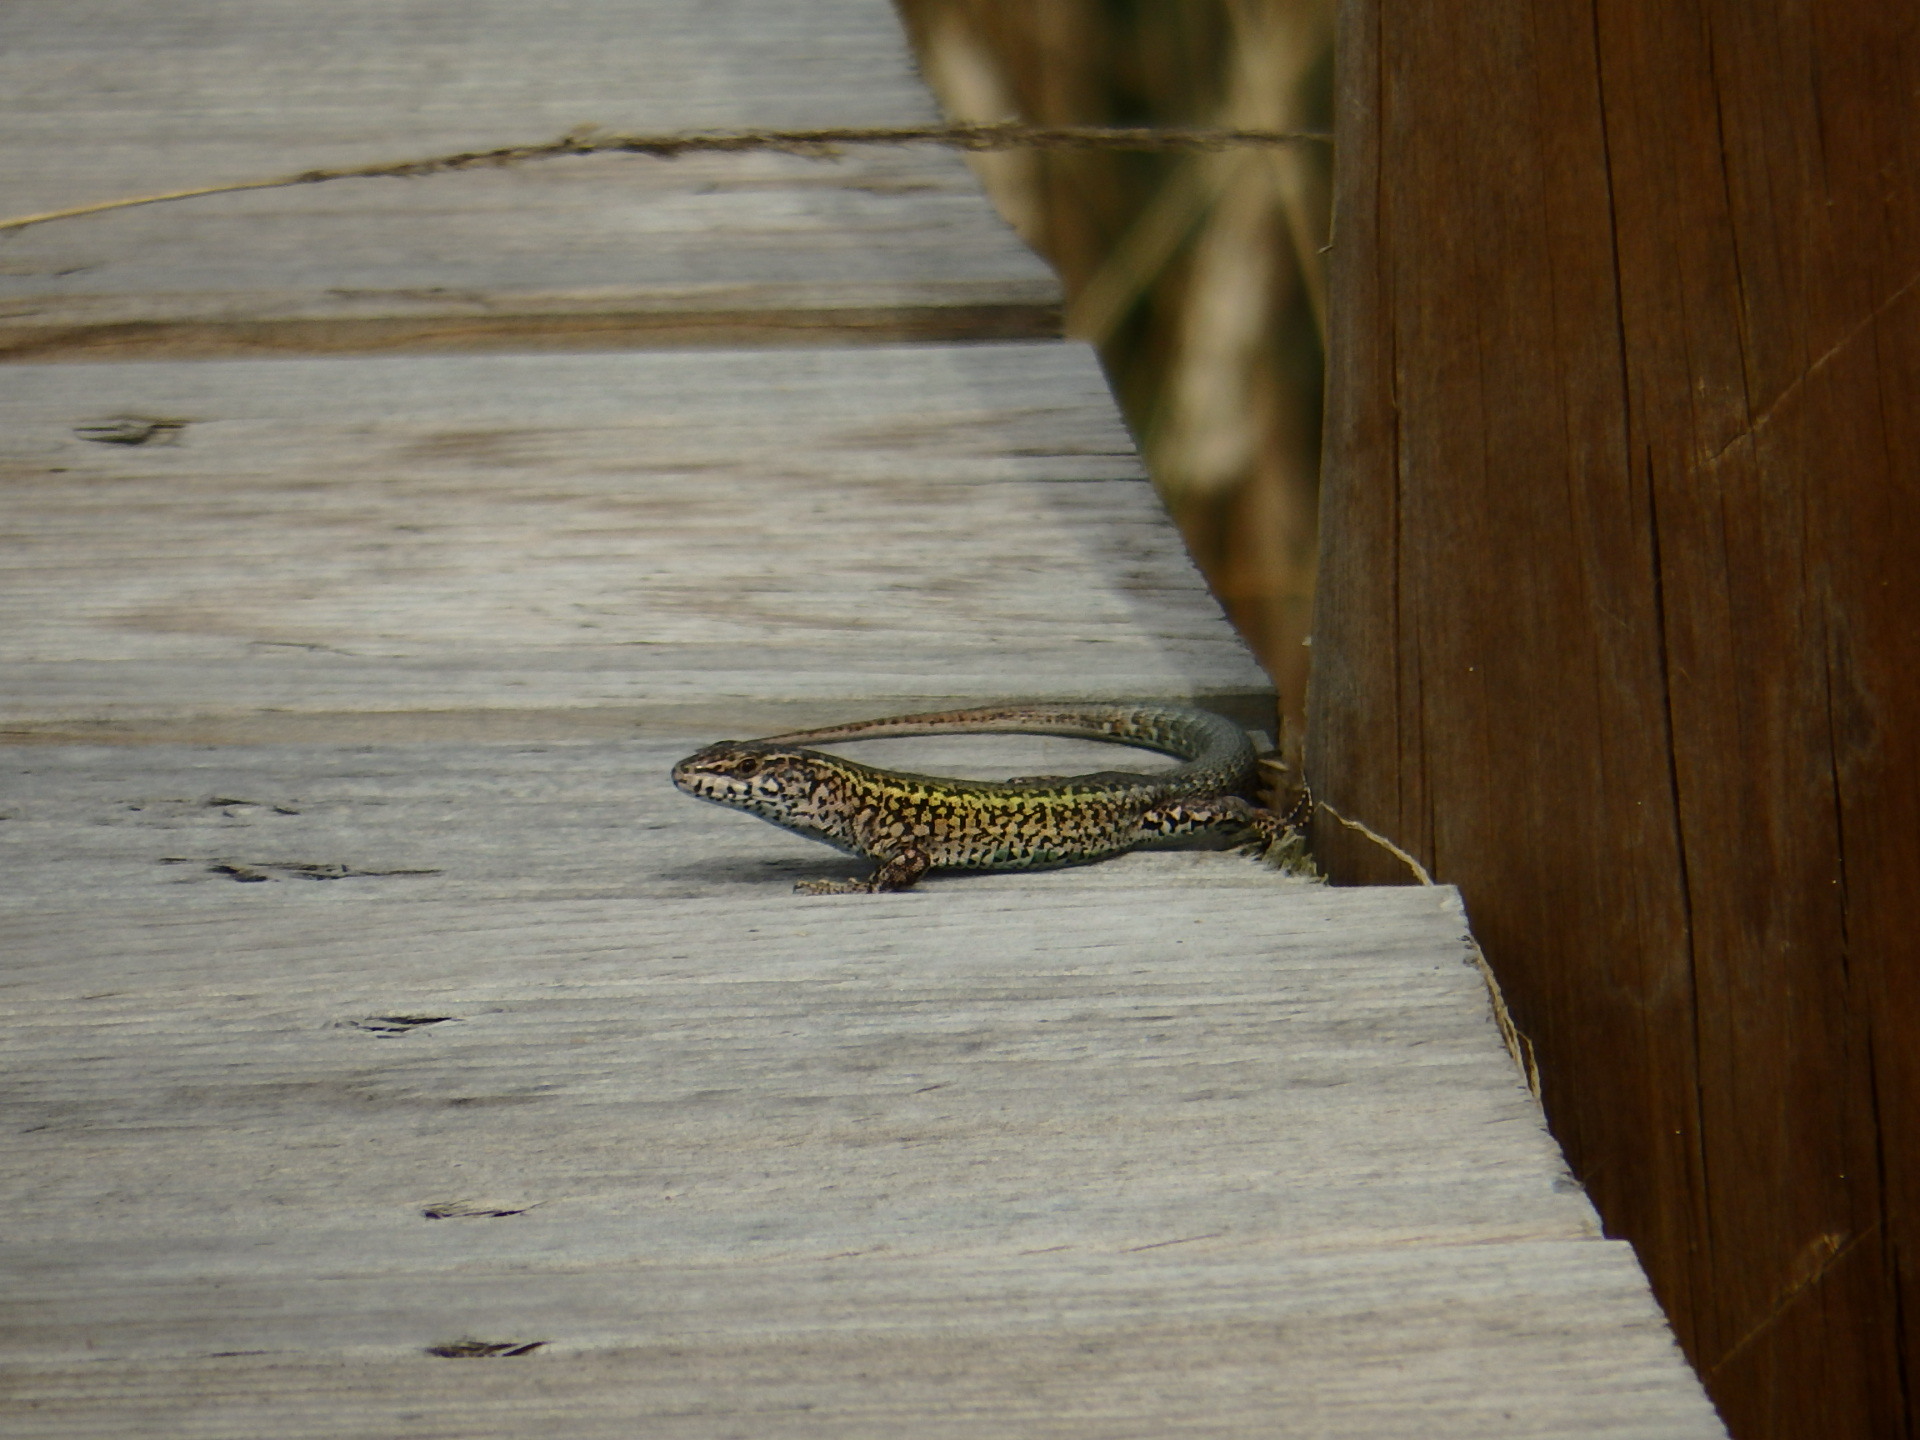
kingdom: Animalia
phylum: Chordata
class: Squamata
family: Lacertidae
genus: Podarcis
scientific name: Podarcis carbonelli
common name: Carbonelli's wall lizard
